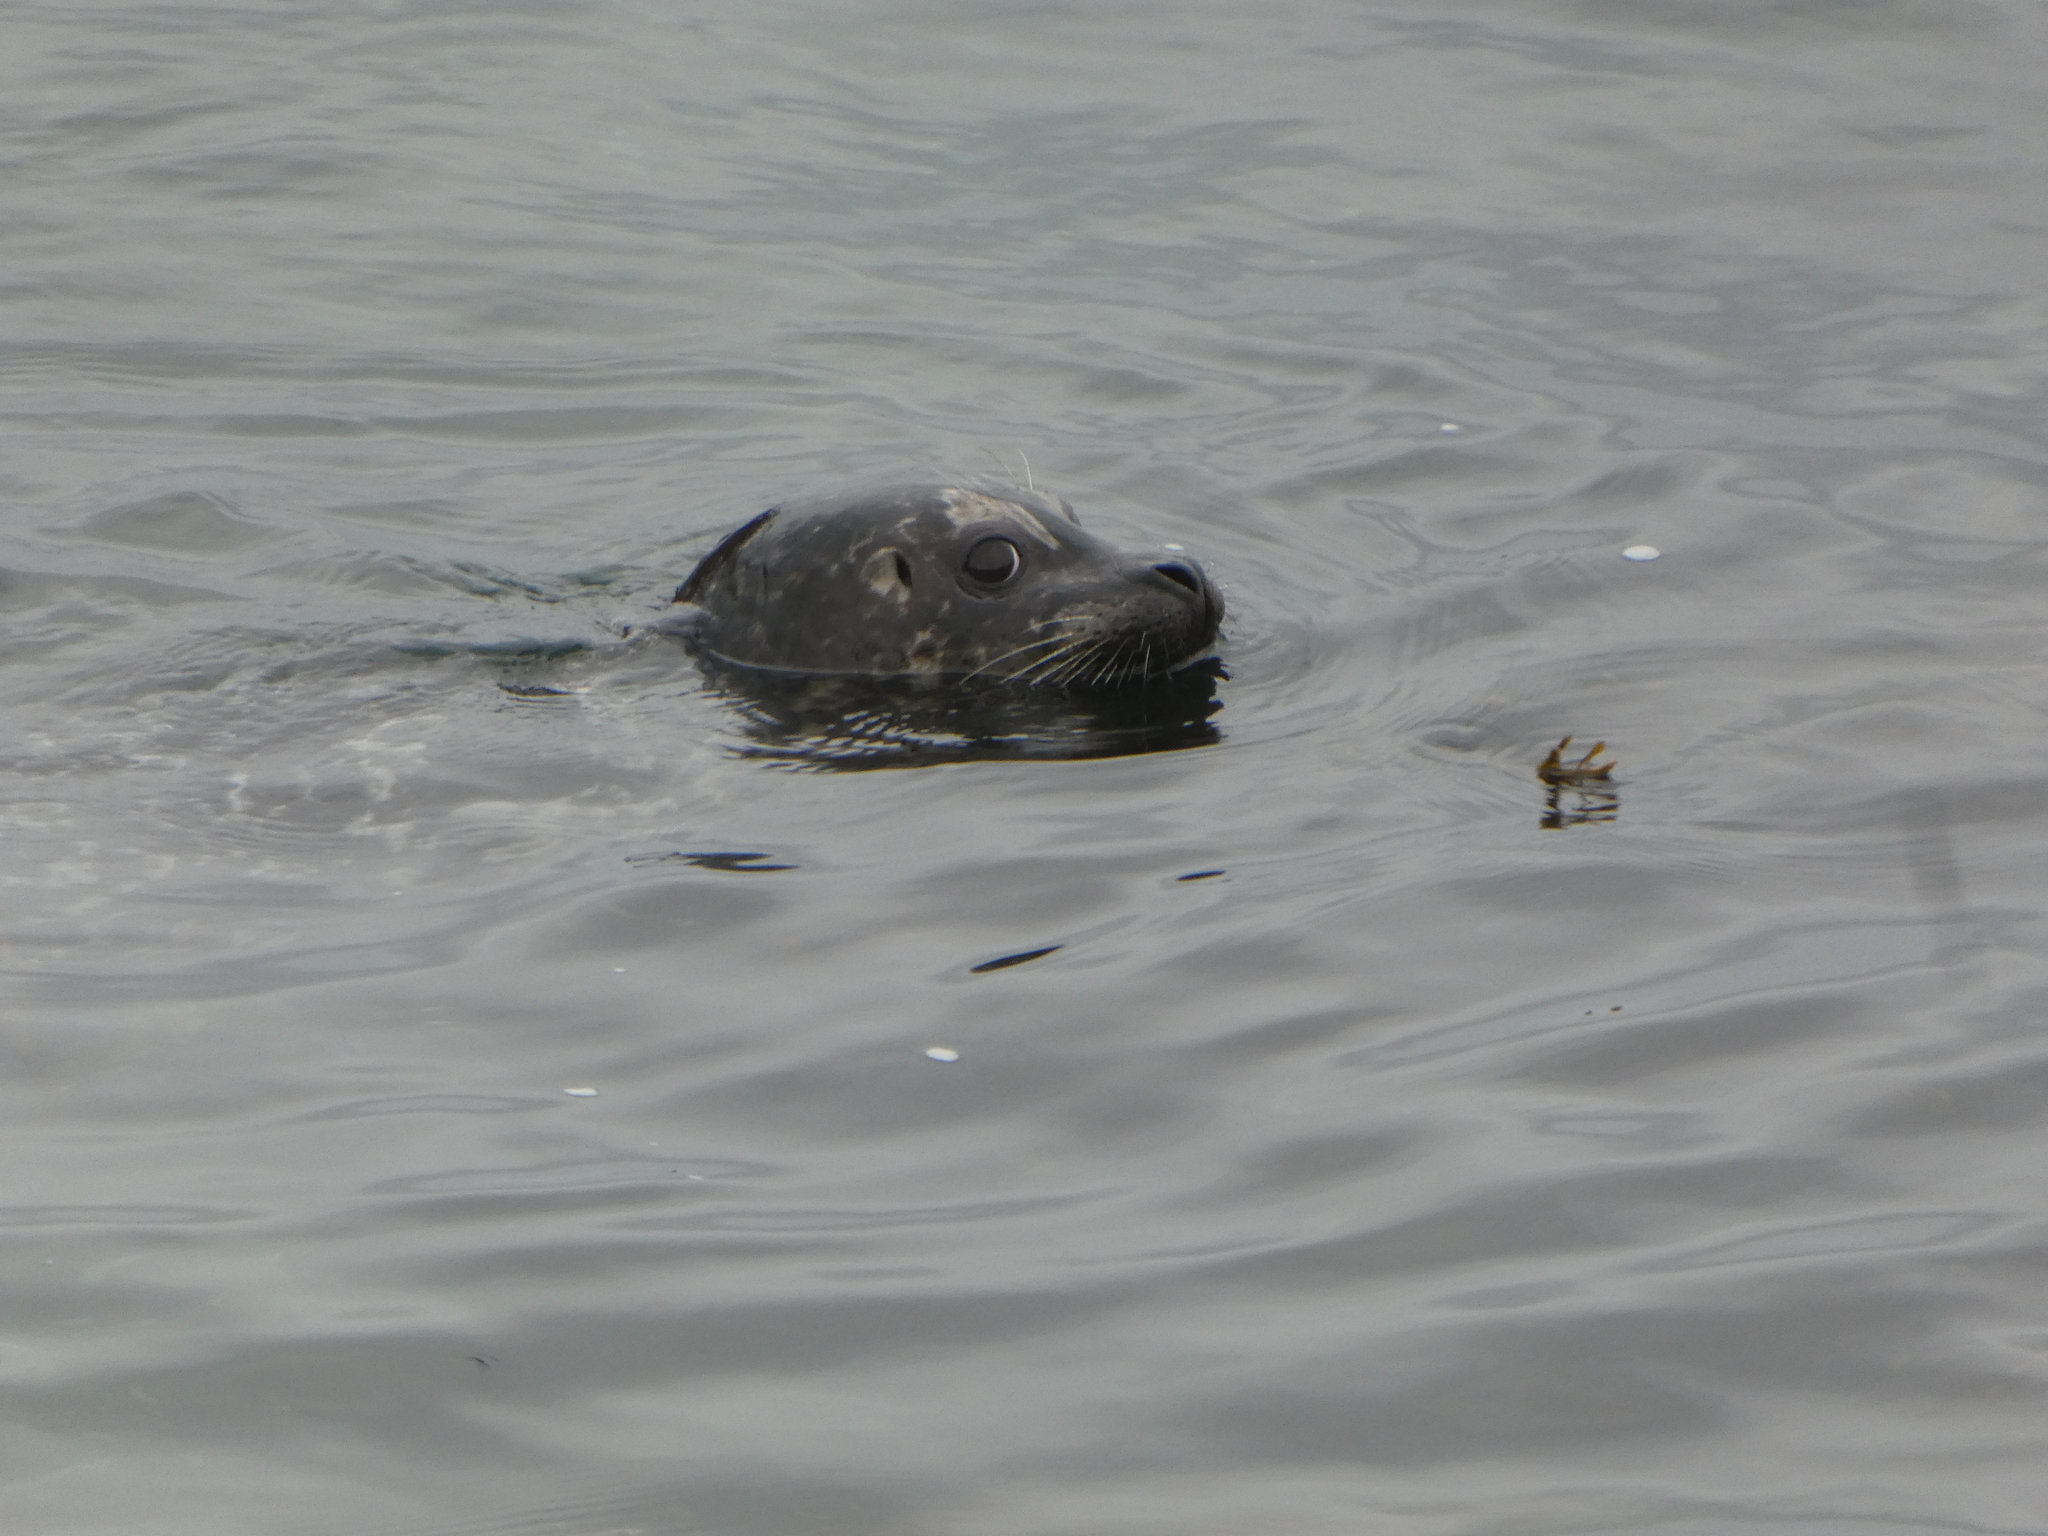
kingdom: Animalia
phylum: Chordata
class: Mammalia
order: Carnivora
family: Phocidae
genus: Phoca
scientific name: Phoca vitulina
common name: Harbor seal
